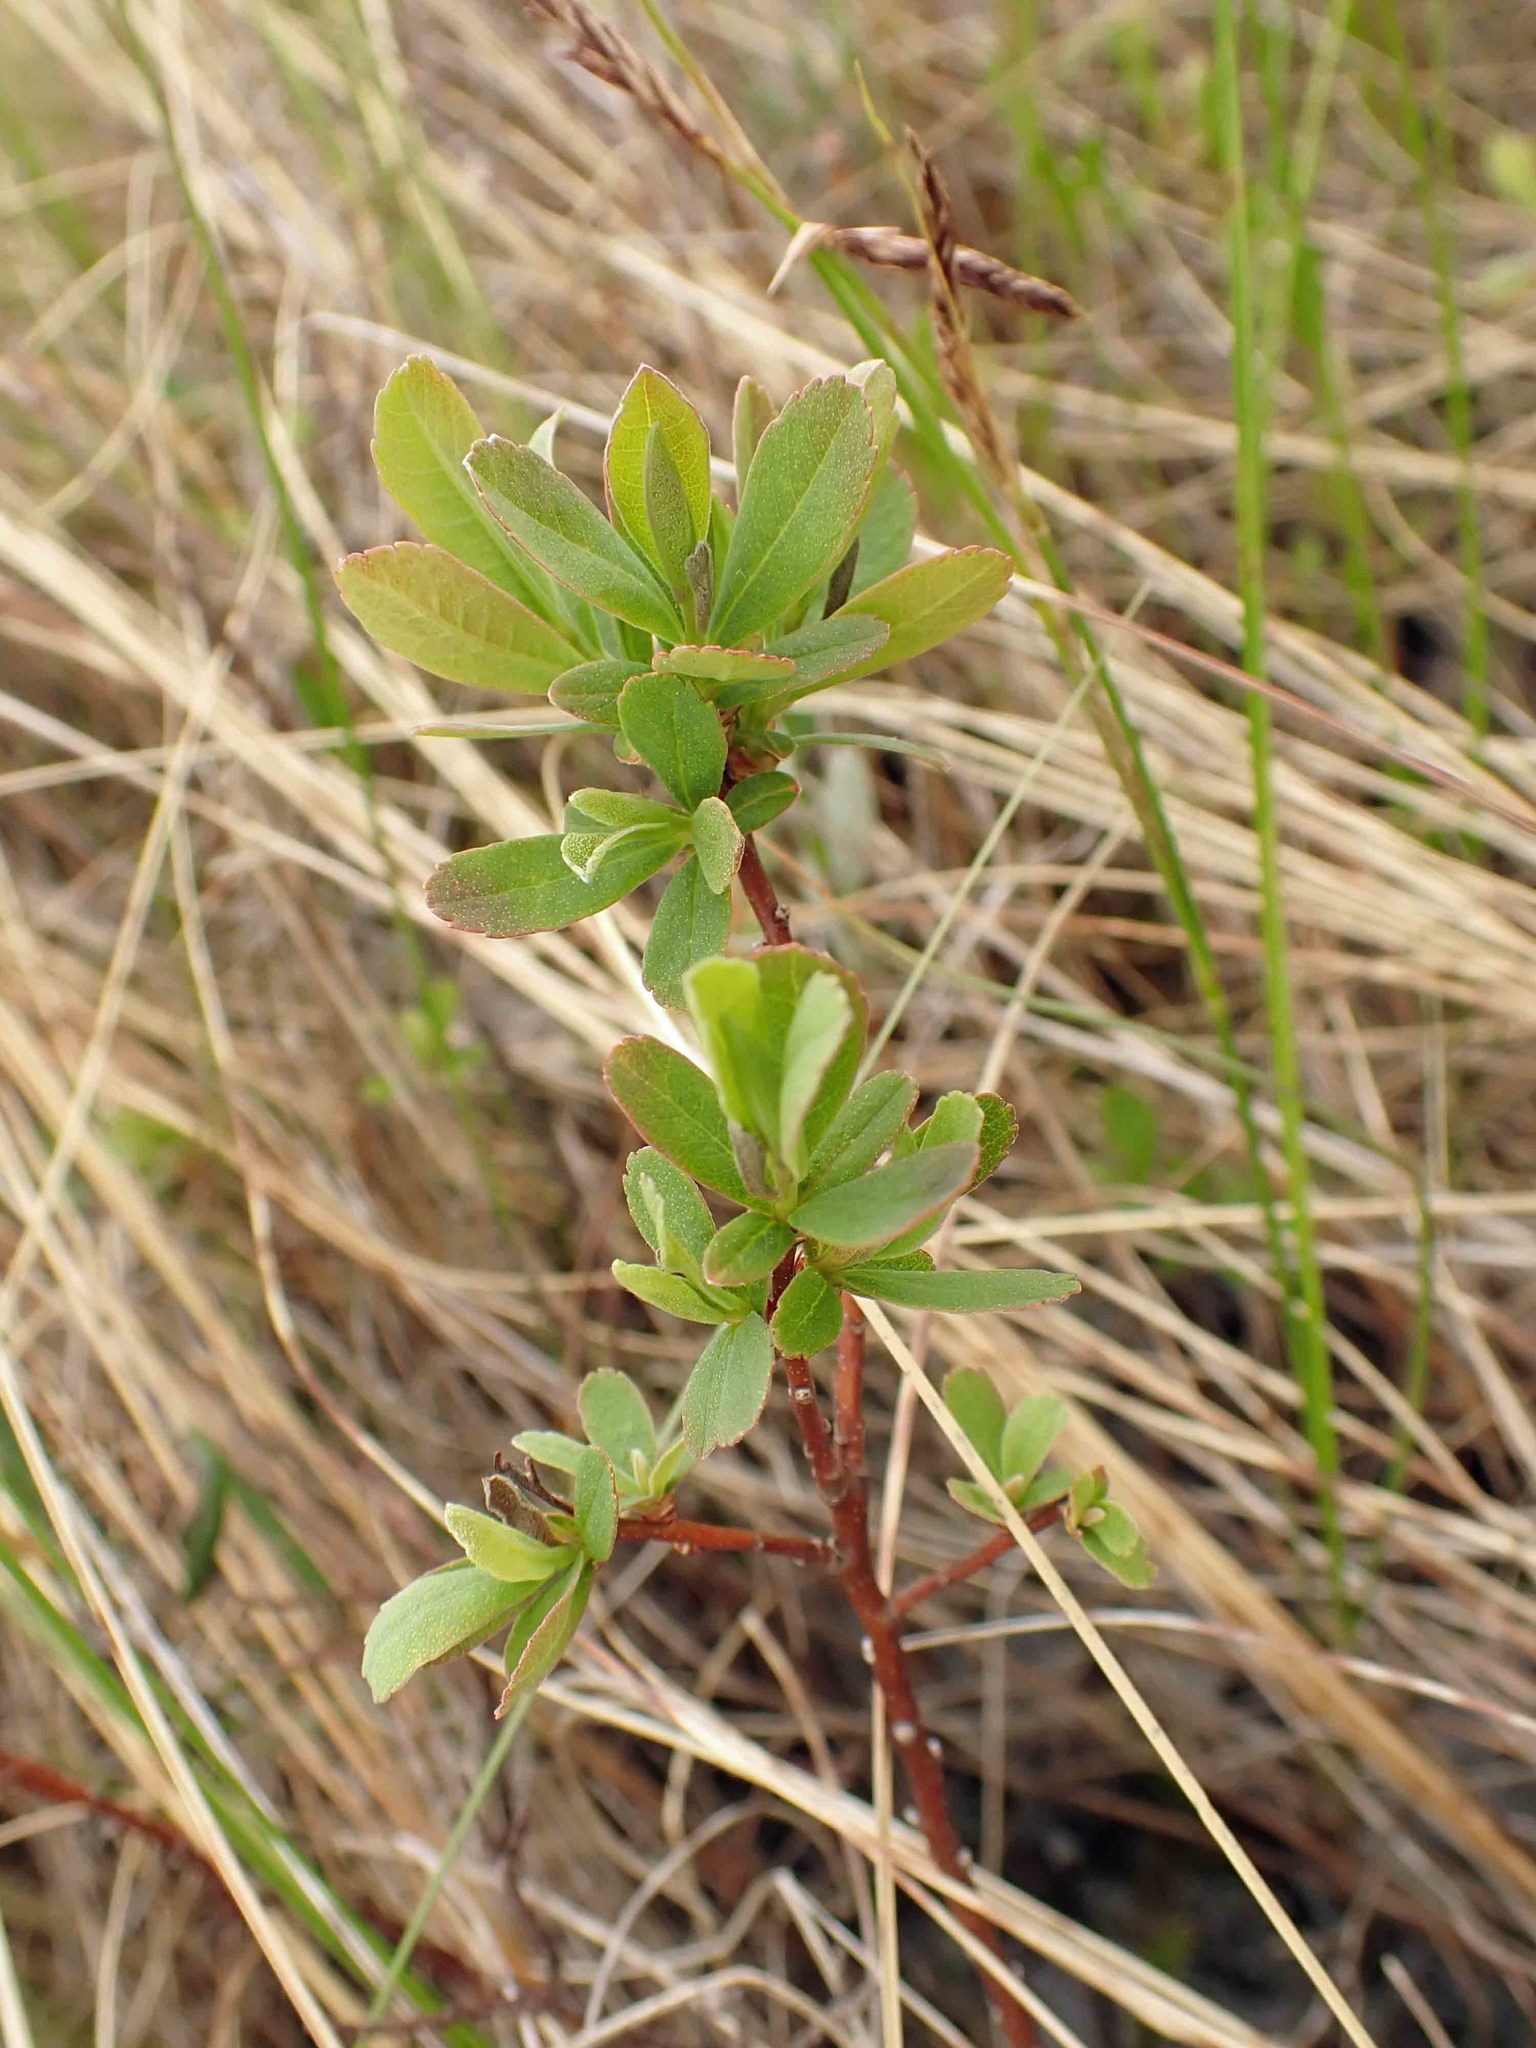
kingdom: Plantae
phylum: Tracheophyta
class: Magnoliopsida
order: Fagales
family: Myricaceae
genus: Myrica
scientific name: Myrica gale
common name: Sweet gale
